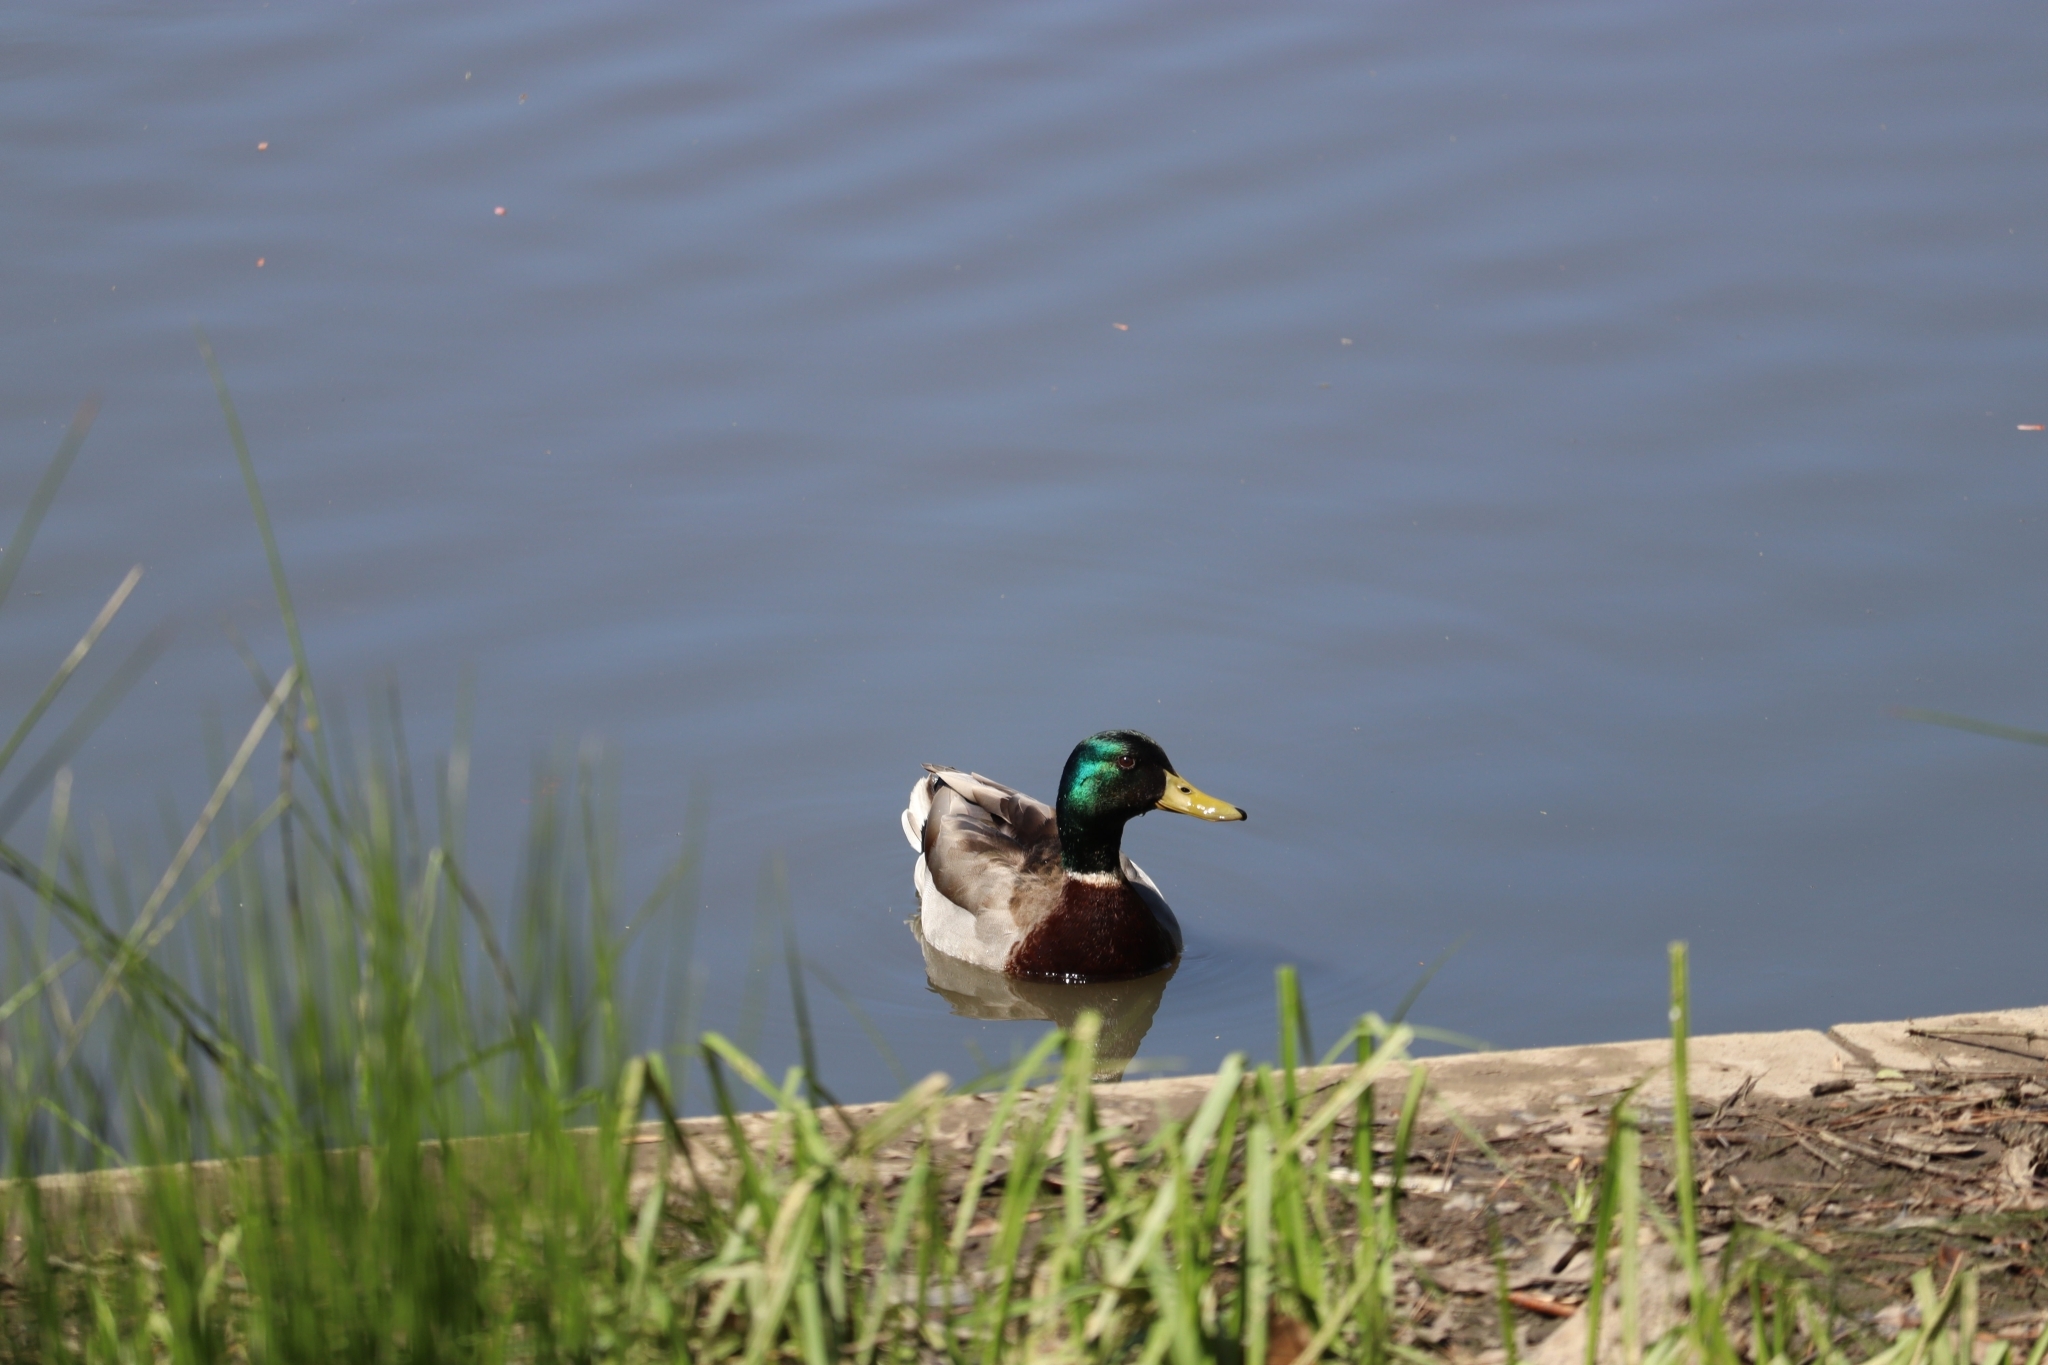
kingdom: Animalia
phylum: Chordata
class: Aves
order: Anseriformes
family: Anatidae
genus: Anas
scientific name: Anas platyrhynchos
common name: Mallard
